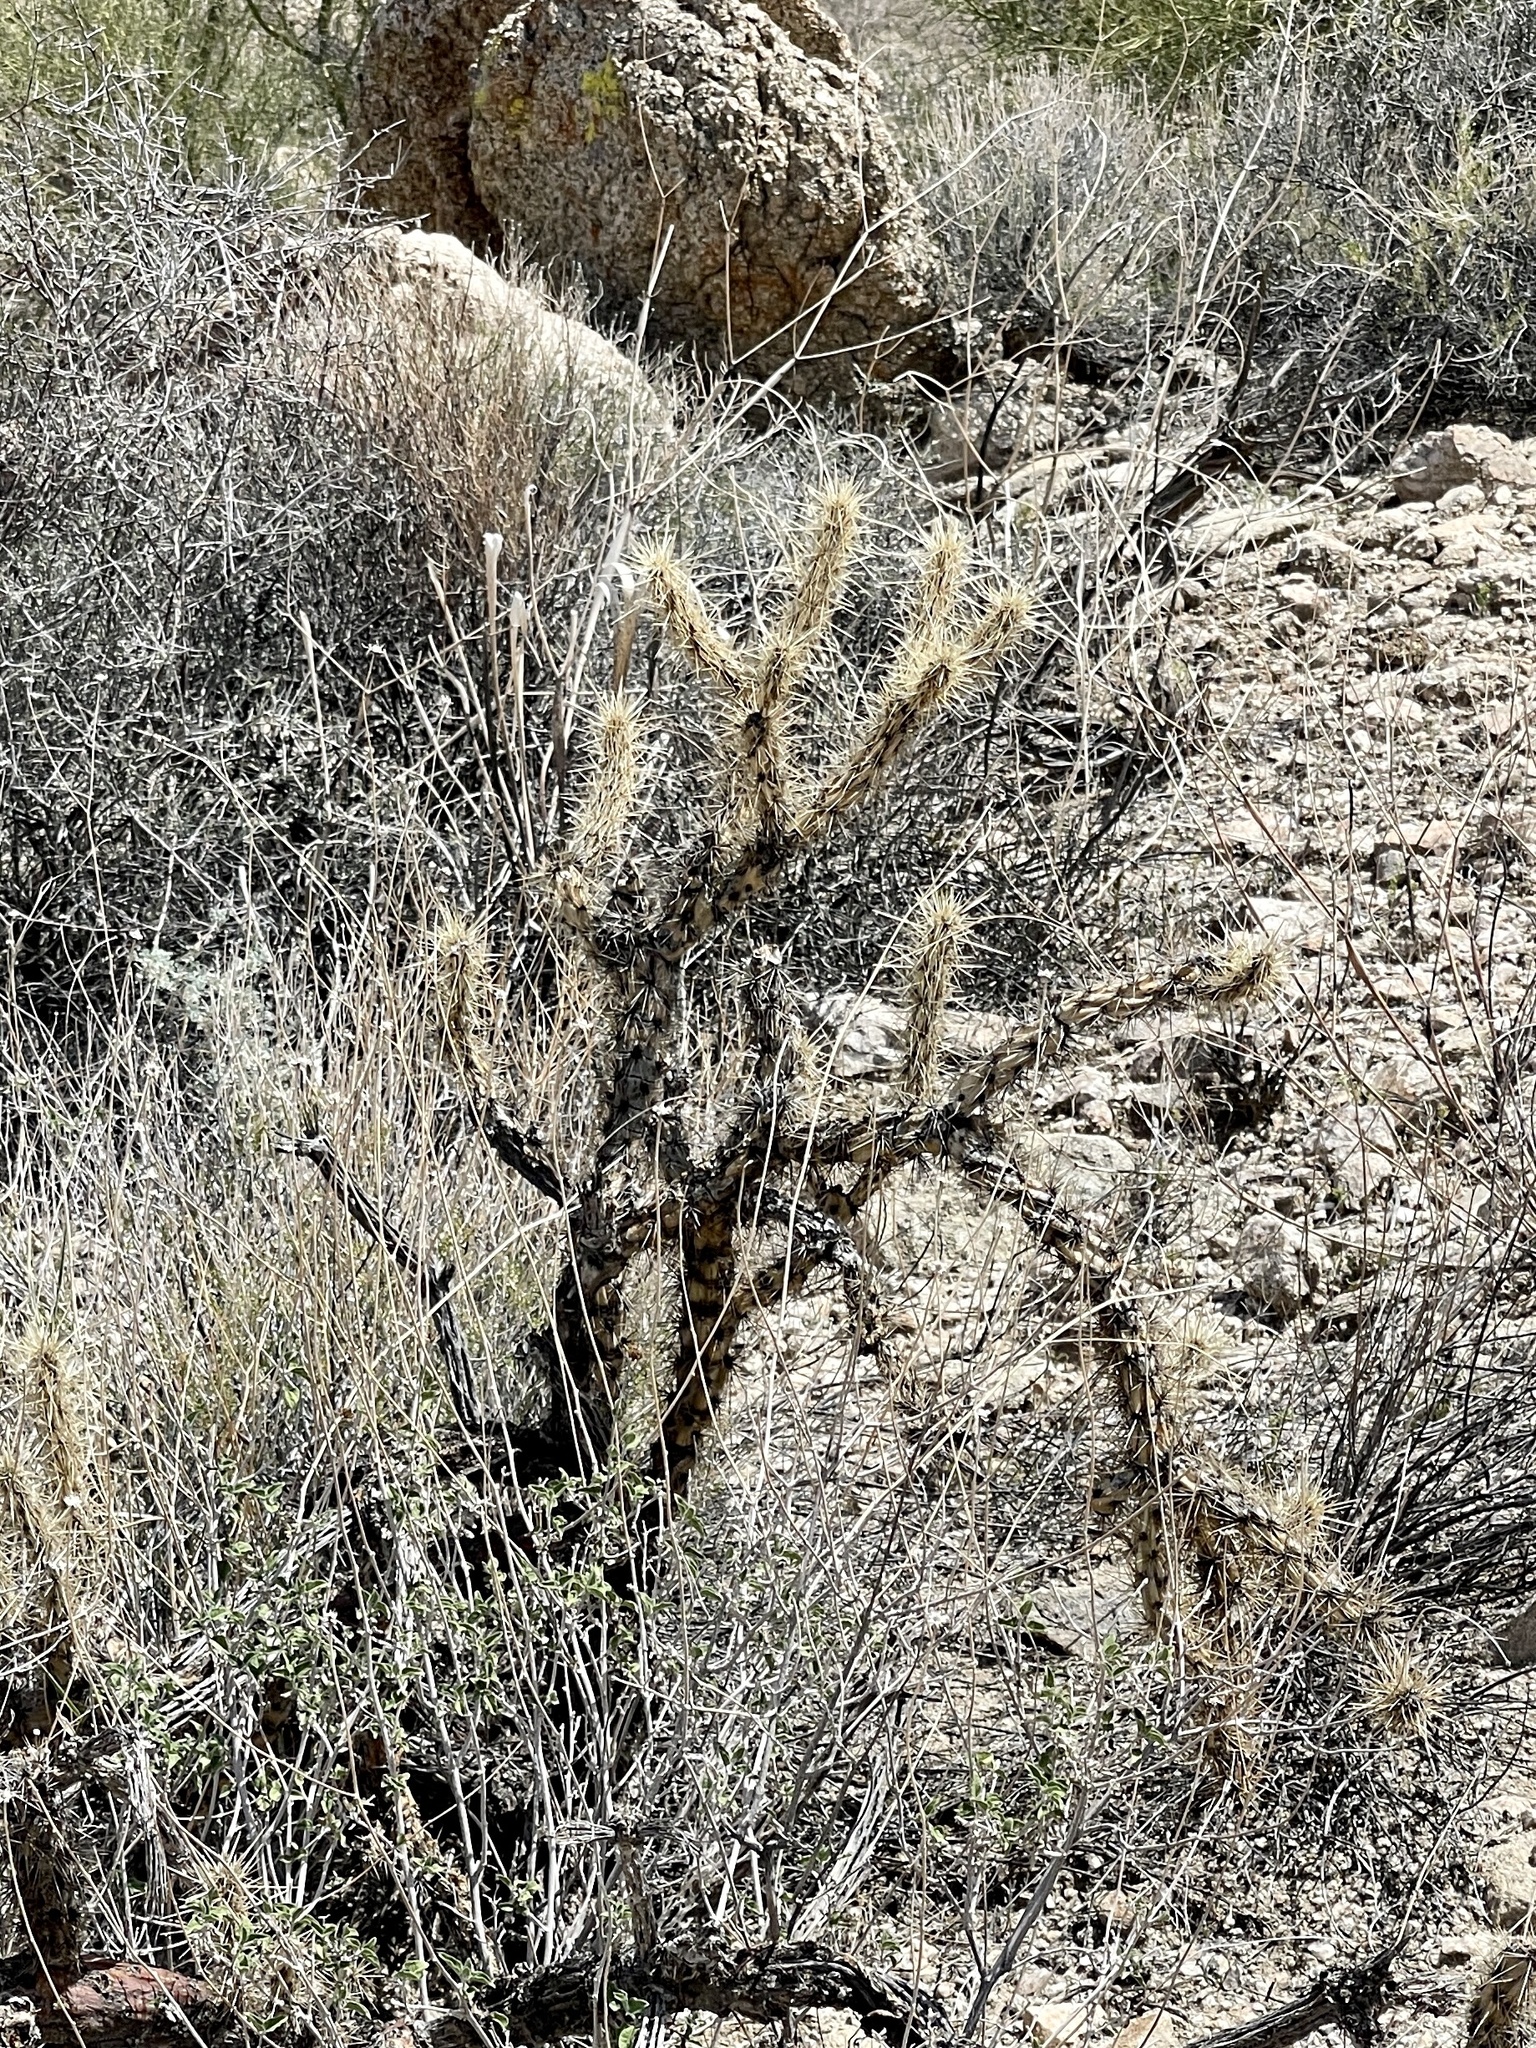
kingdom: Plantae
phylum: Tracheophyta
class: Magnoliopsida
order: Caryophyllales
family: Cactaceae
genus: Cylindropuntia
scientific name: Cylindropuntia acanthocarpa
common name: Buckhorn cholla
